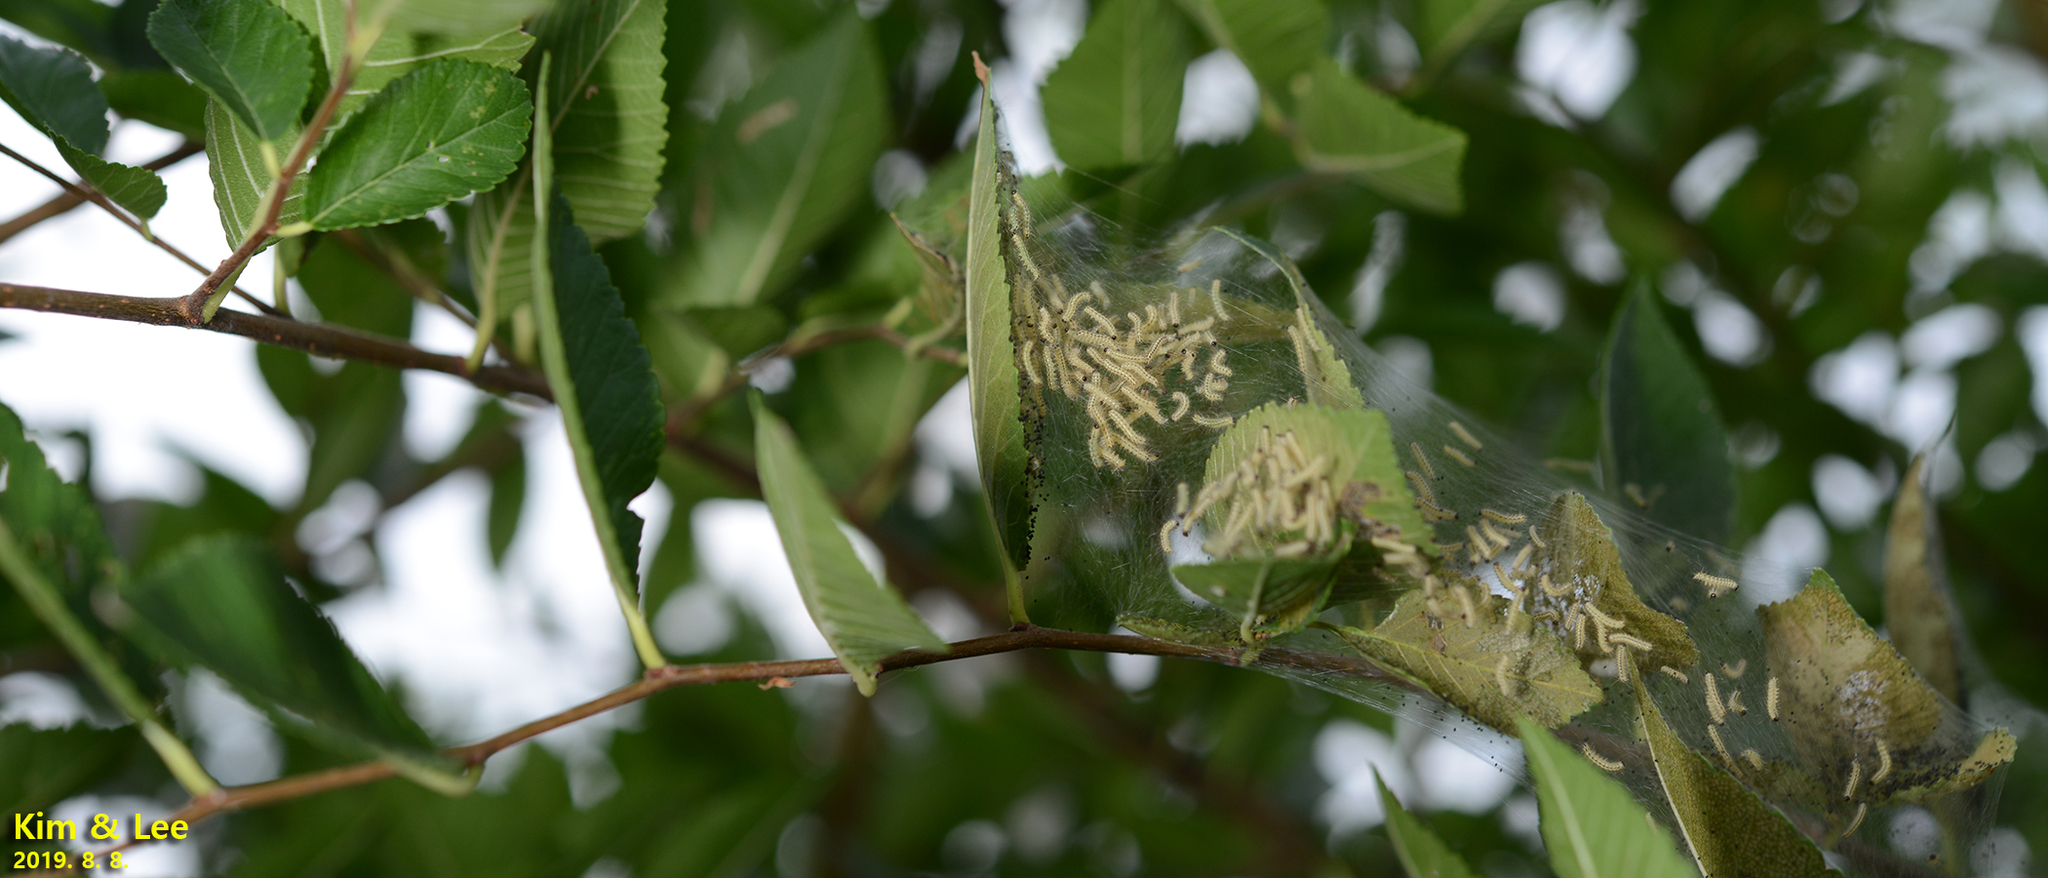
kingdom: Animalia
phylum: Arthropoda
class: Insecta
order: Lepidoptera
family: Erebidae
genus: Hyphantria
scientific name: Hyphantria cunea
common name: American white moth
